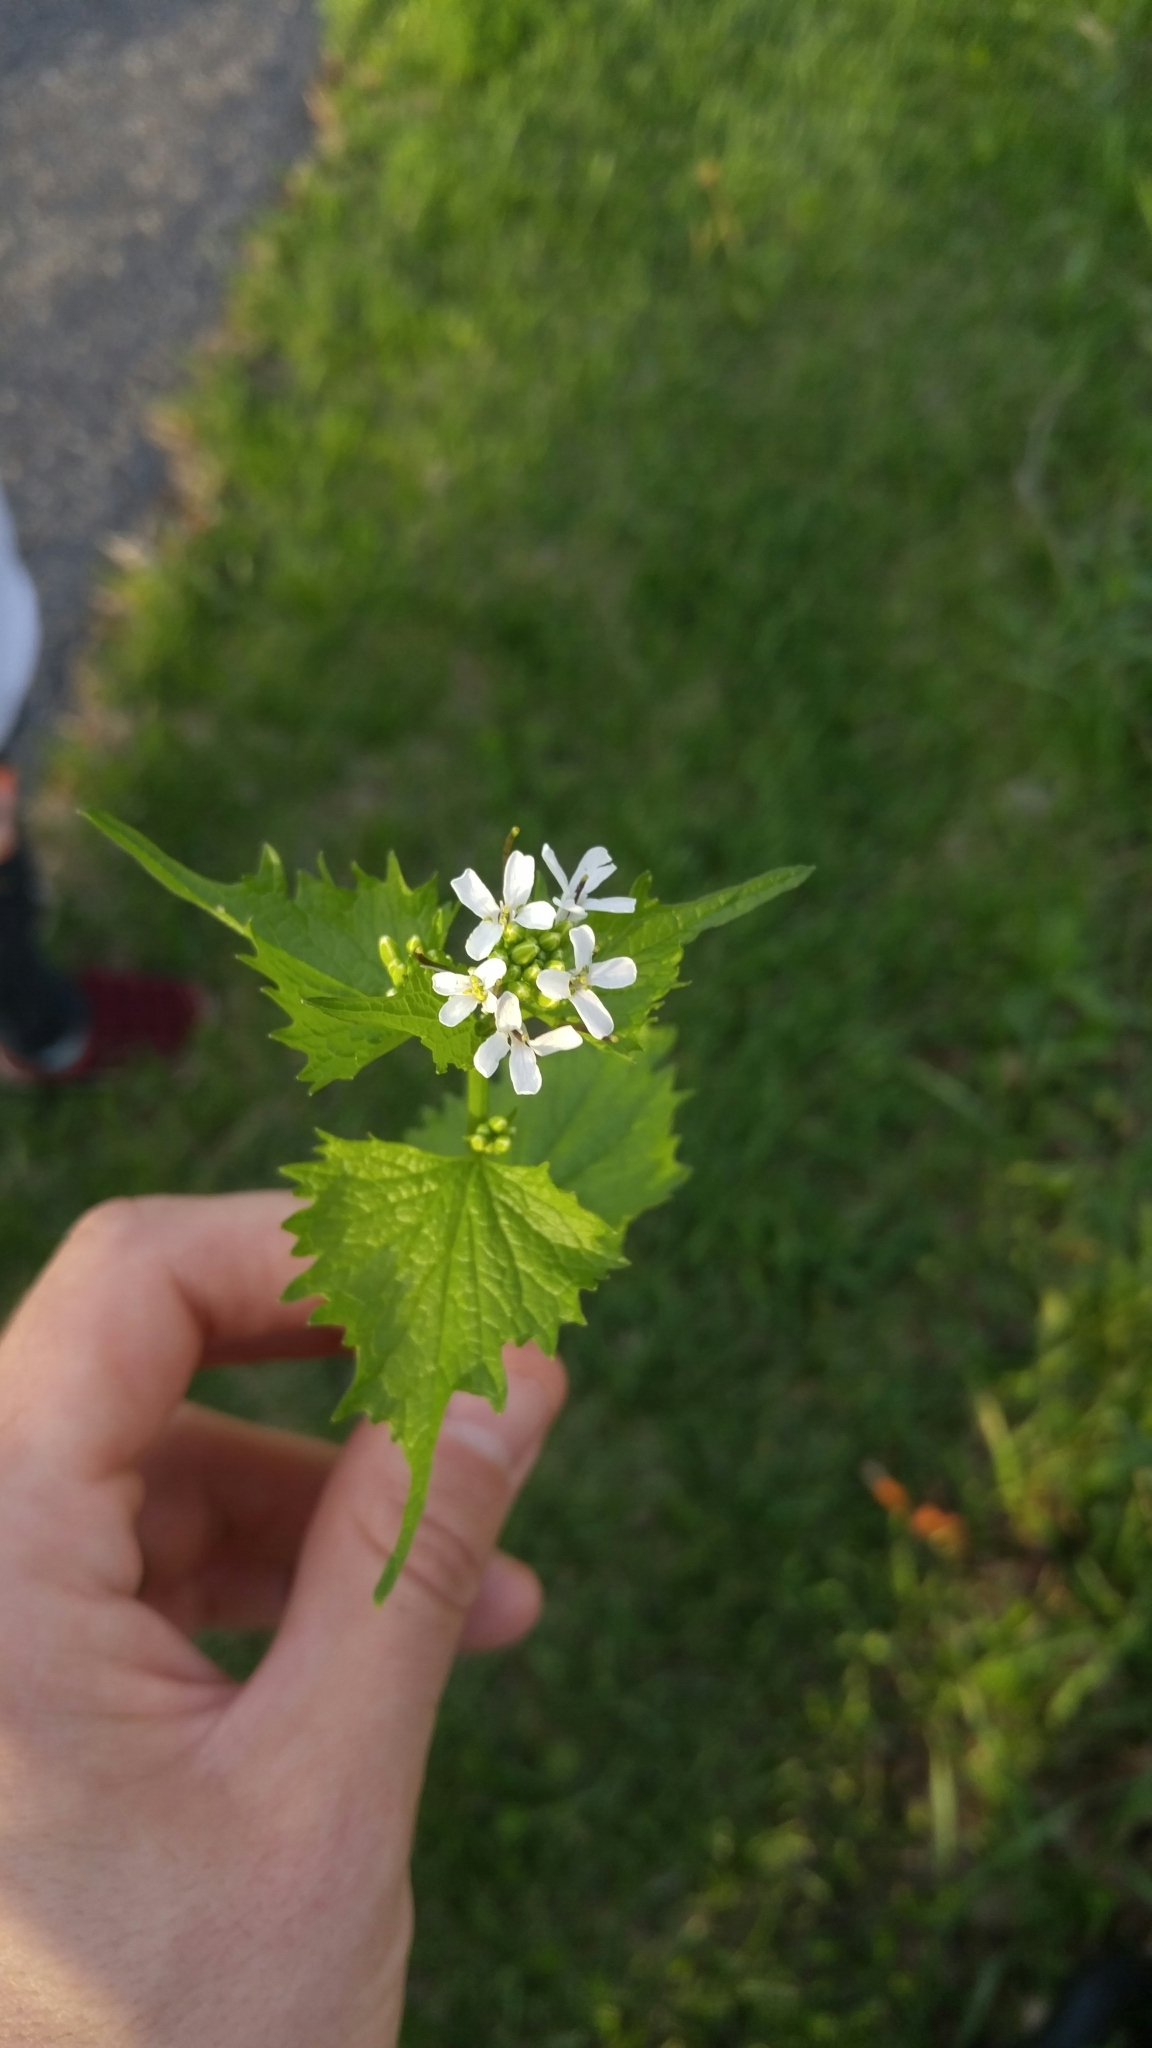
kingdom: Plantae
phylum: Tracheophyta
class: Magnoliopsida
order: Brassicales
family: Brassicaceae
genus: Alliaria
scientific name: Alliaria petiolata
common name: Garlic mustard
